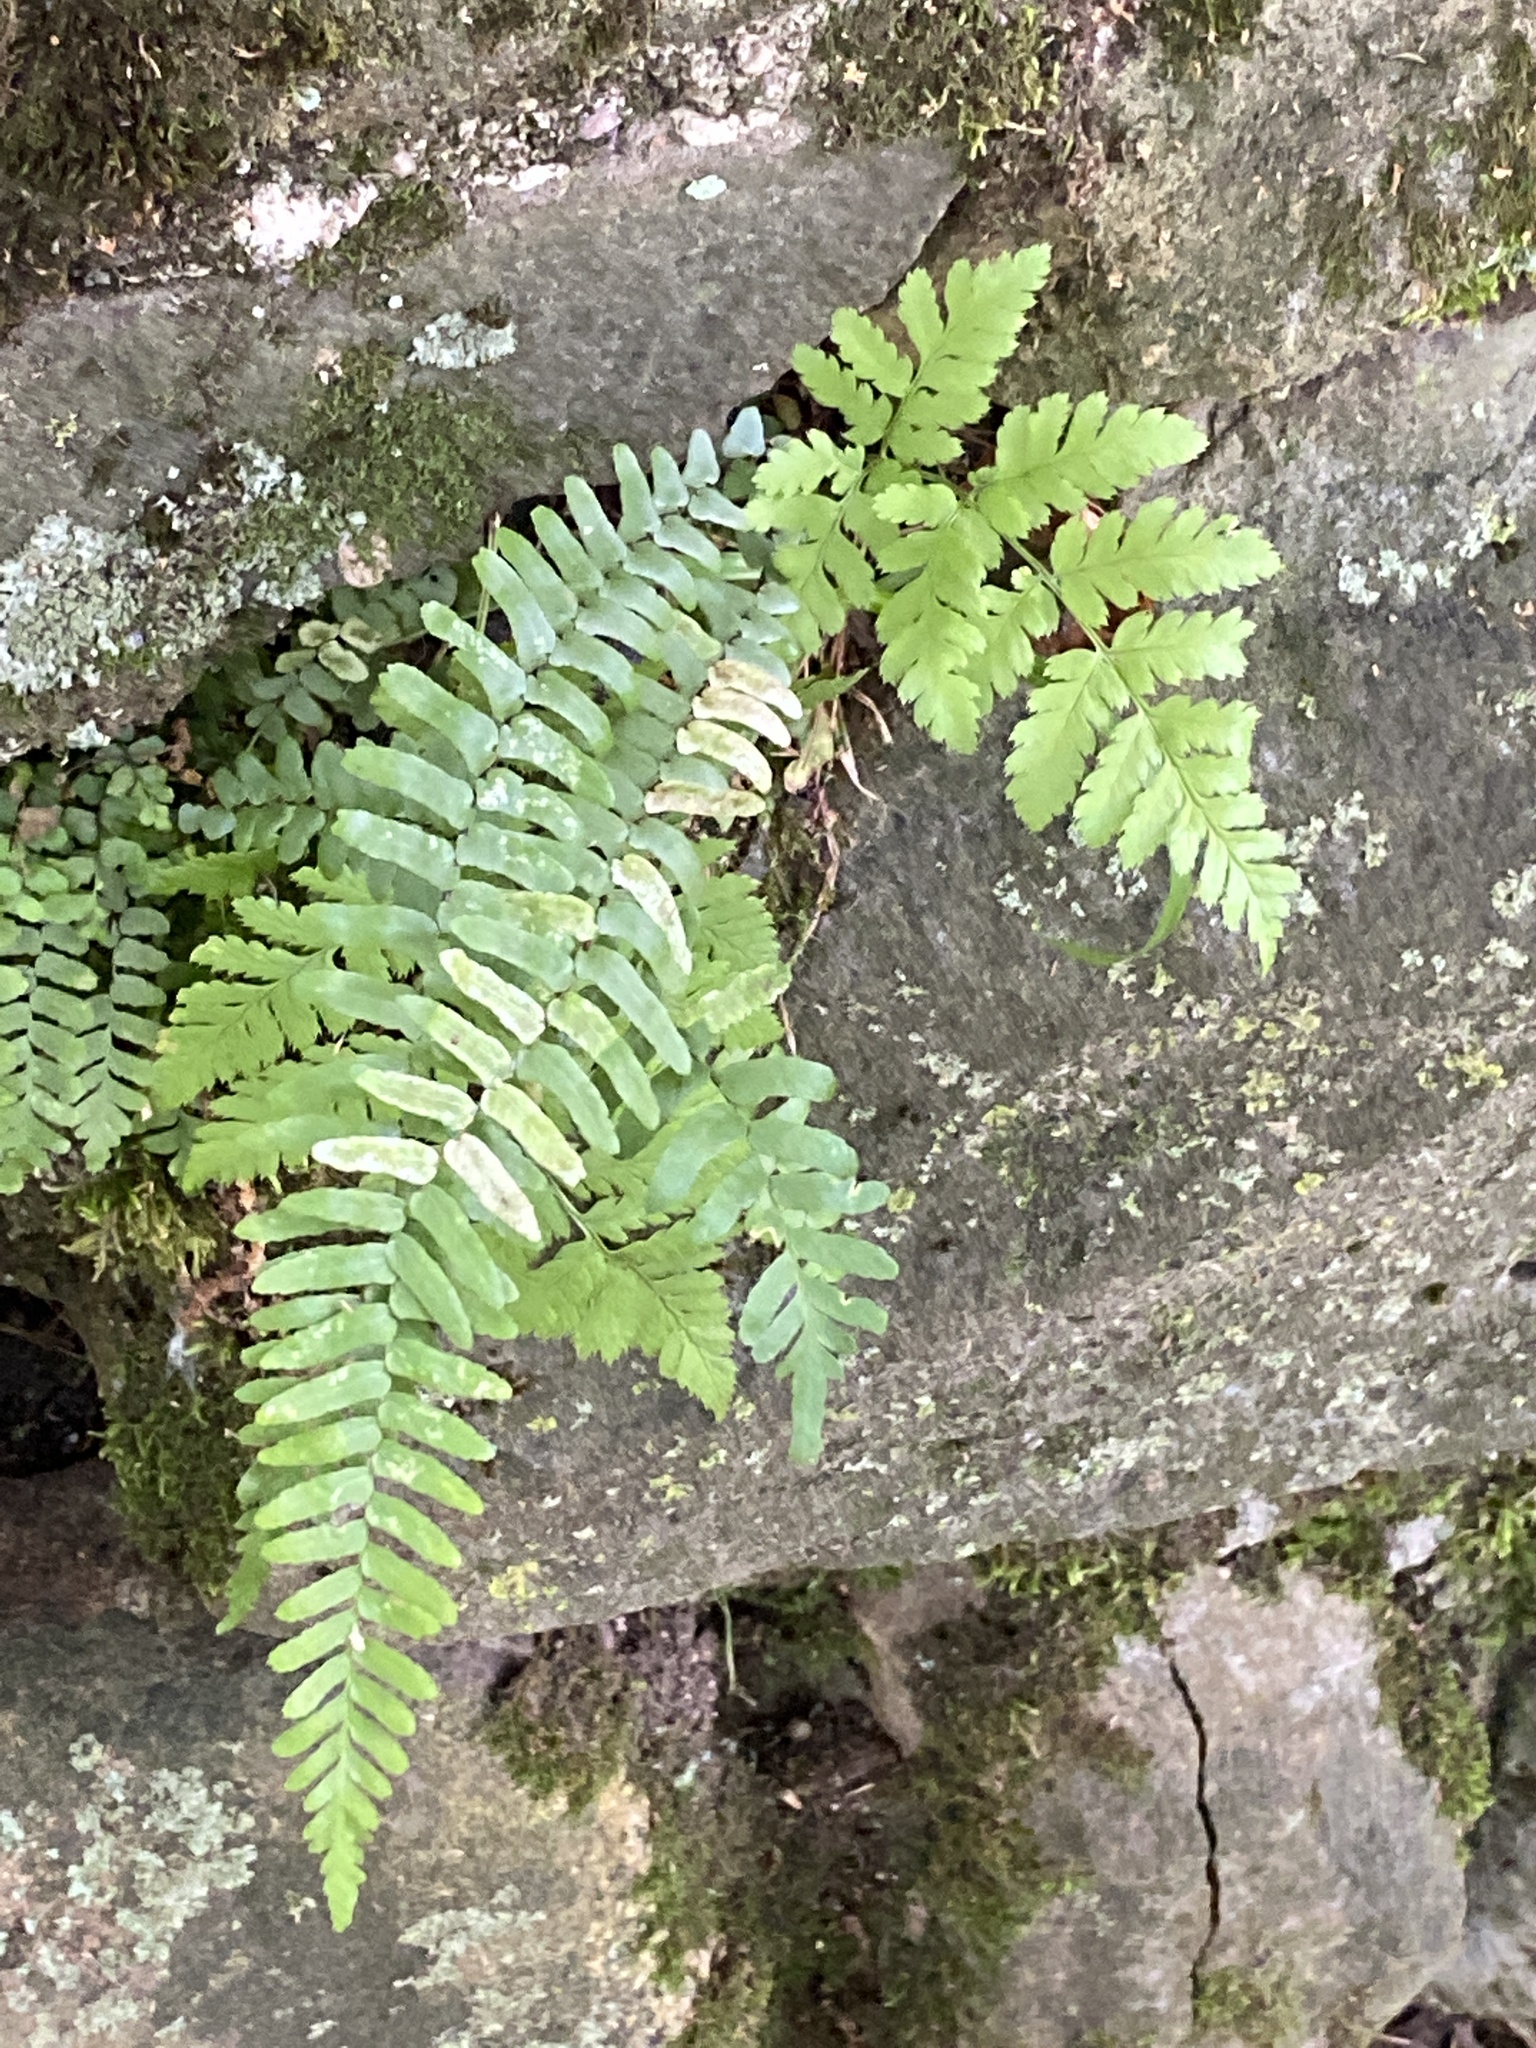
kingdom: Plantae
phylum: Tracheophyta
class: Polypodiopsida
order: Polypodiales
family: Dryopteridaceae
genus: Dryopteris
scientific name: Dryopteris carthusiana
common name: Narrow buckler-fern
